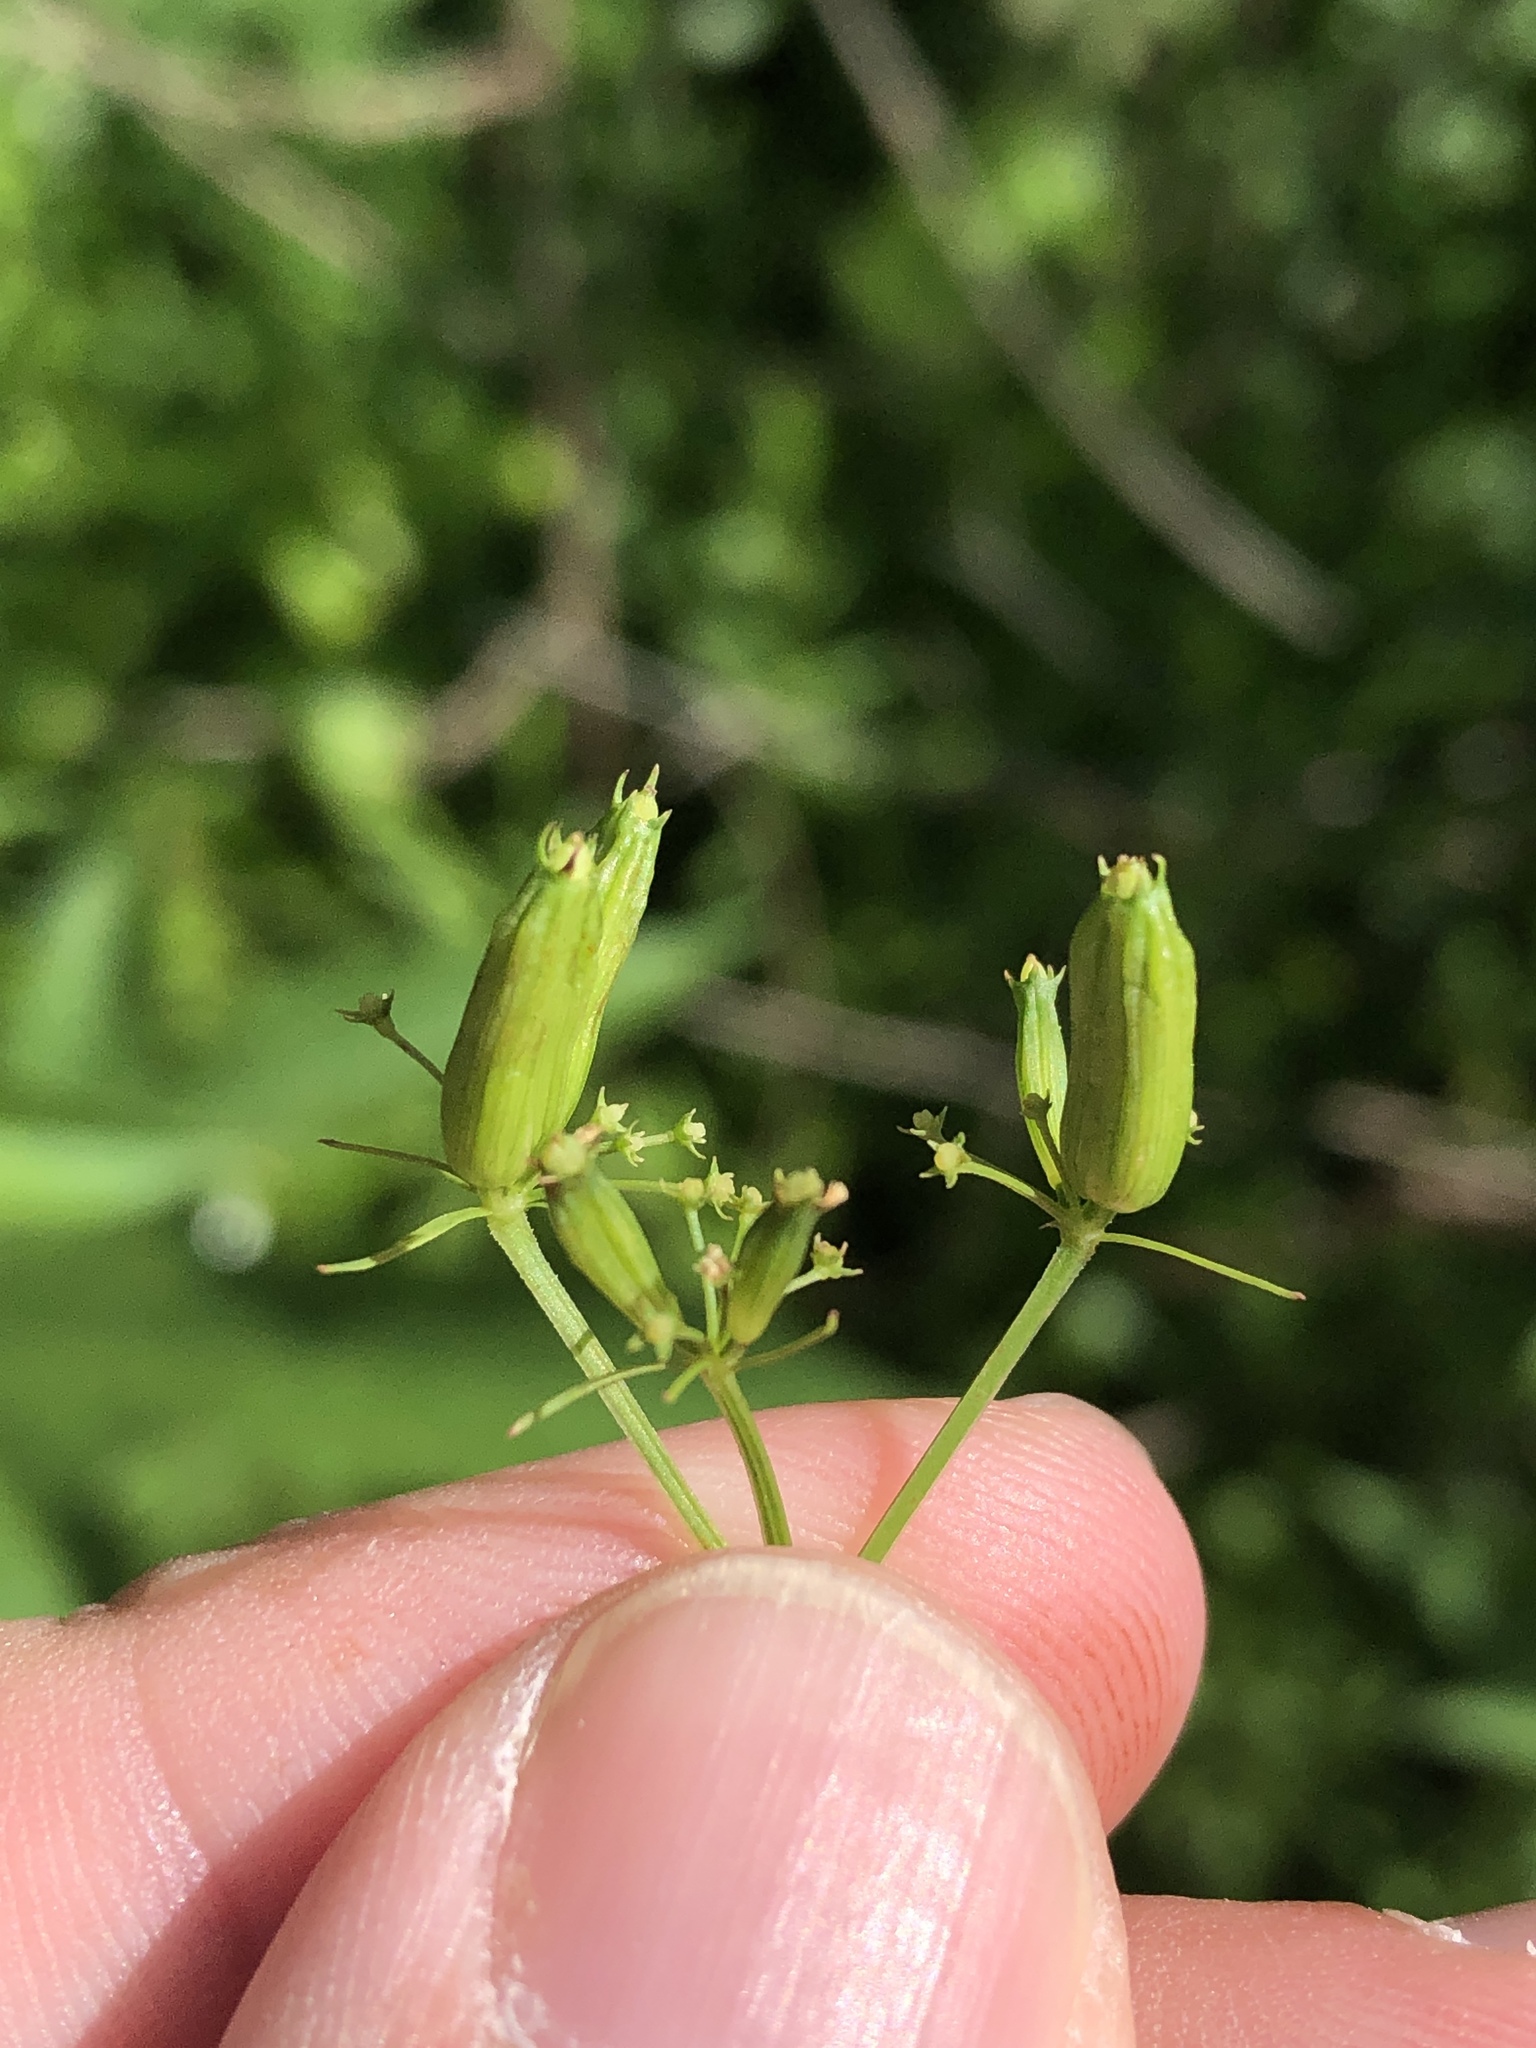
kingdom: Plantae
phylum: Tracheophyta
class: Magnoliopsida
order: Apiales
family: Apiaceae
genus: Trepocarpus
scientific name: Trepocarpus aethusae
